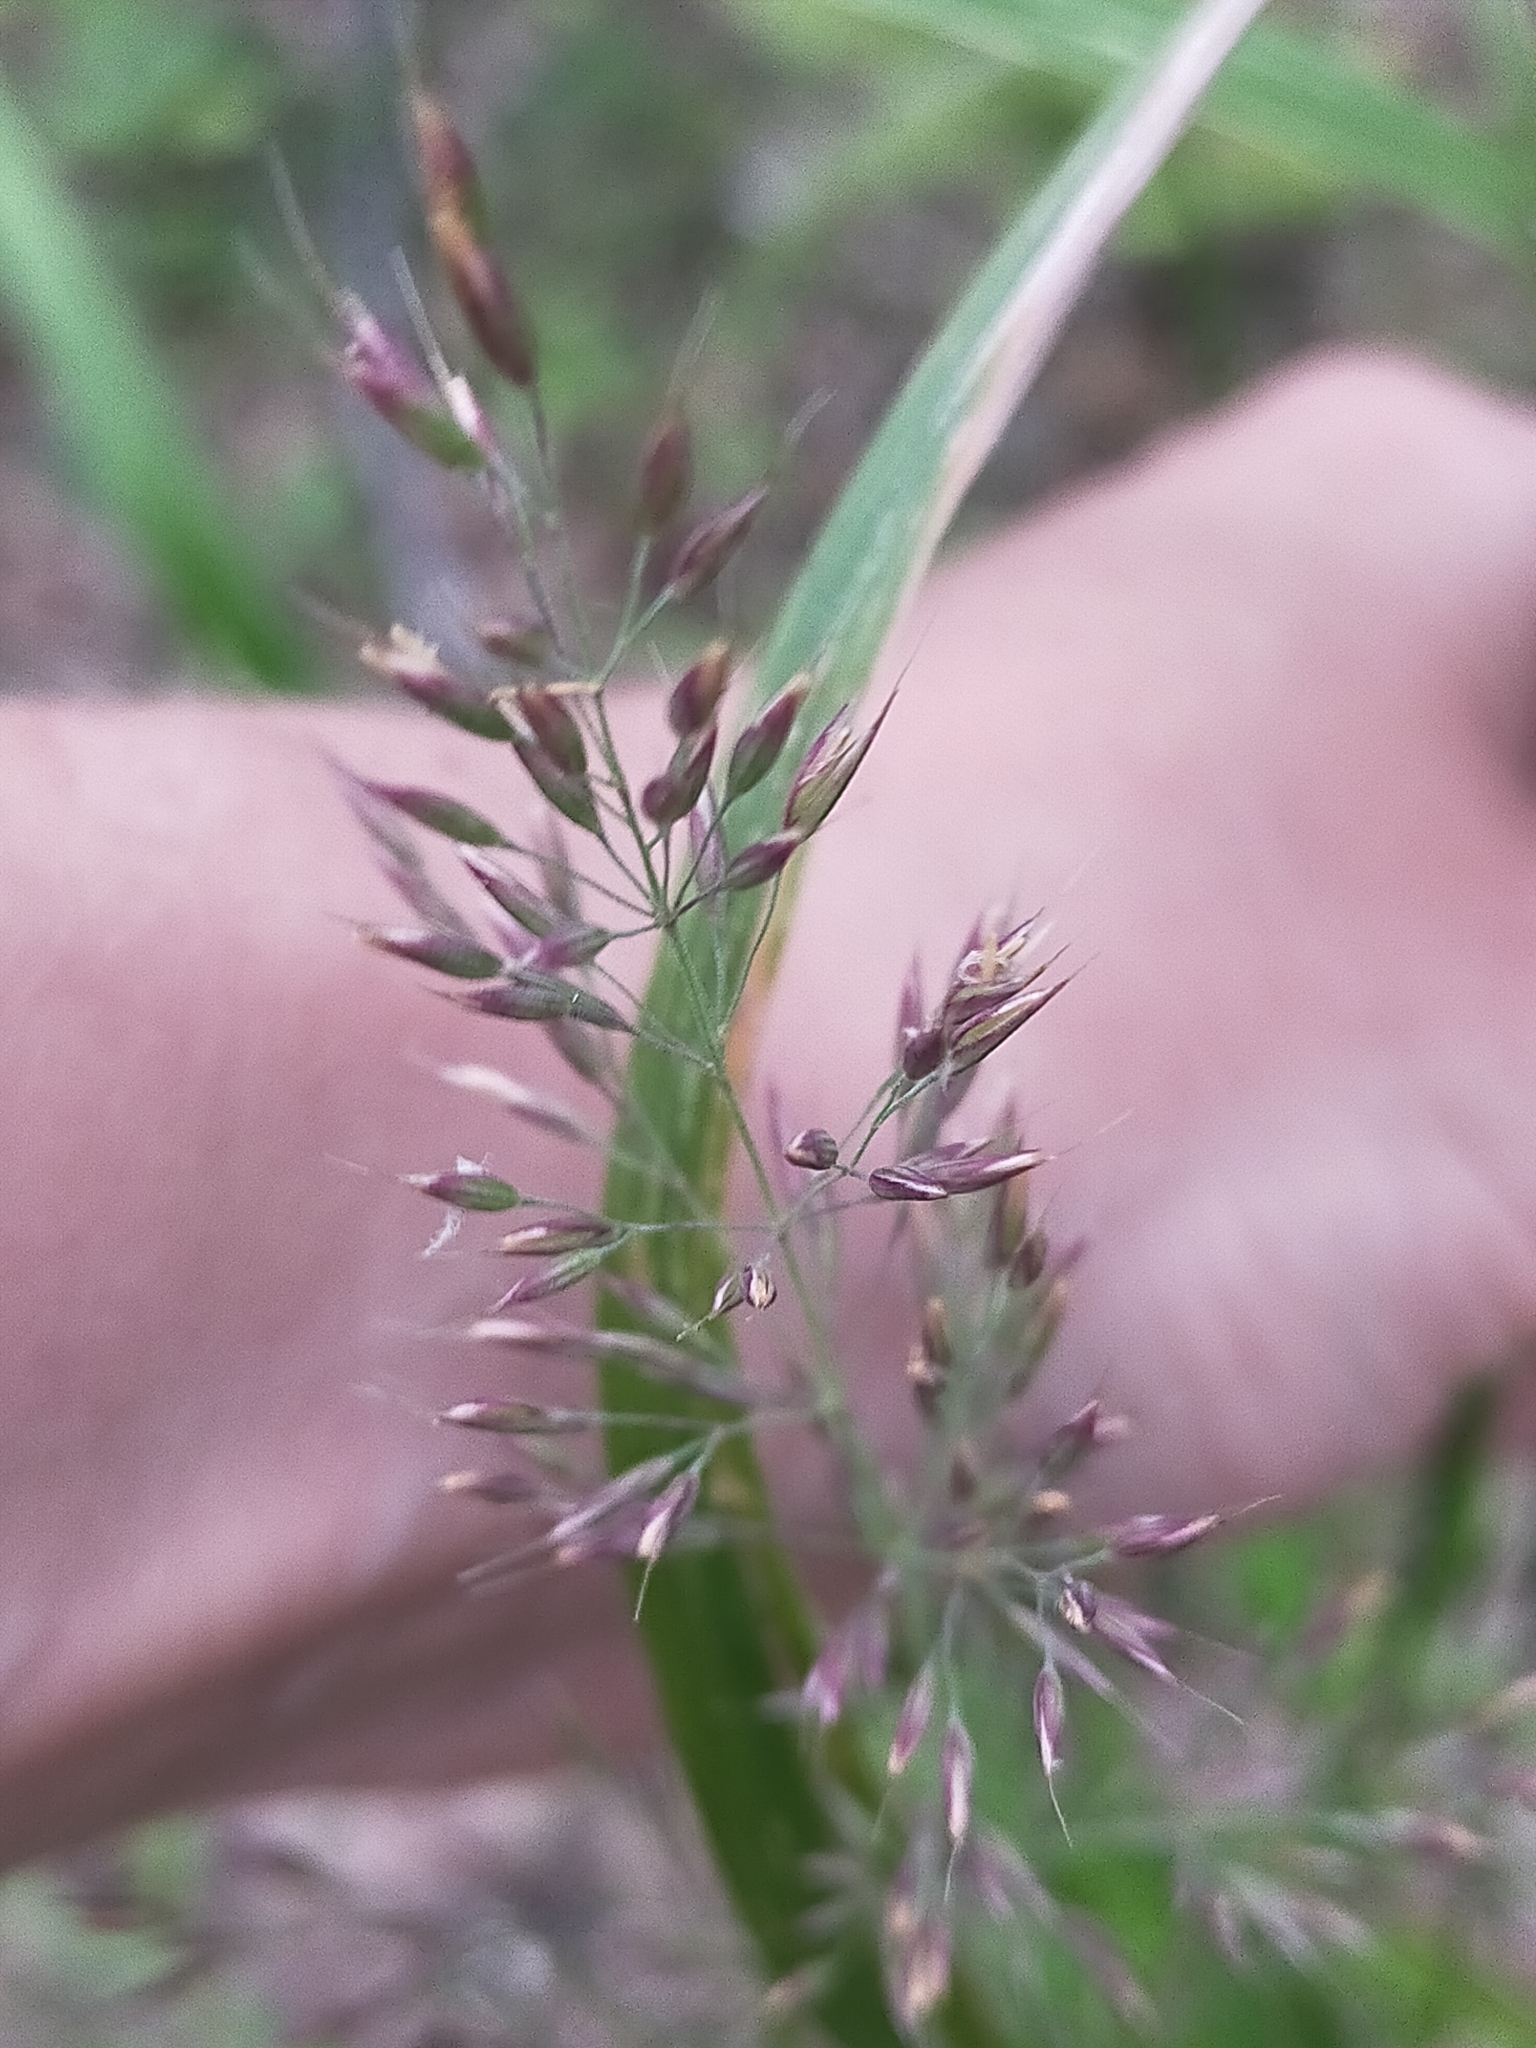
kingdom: Plantae
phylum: Tracheophyta
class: Liliopsida
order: Poales
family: Poaceae
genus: Calamagrostis
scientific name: Calamagrostis arundinacea
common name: Metskastik
